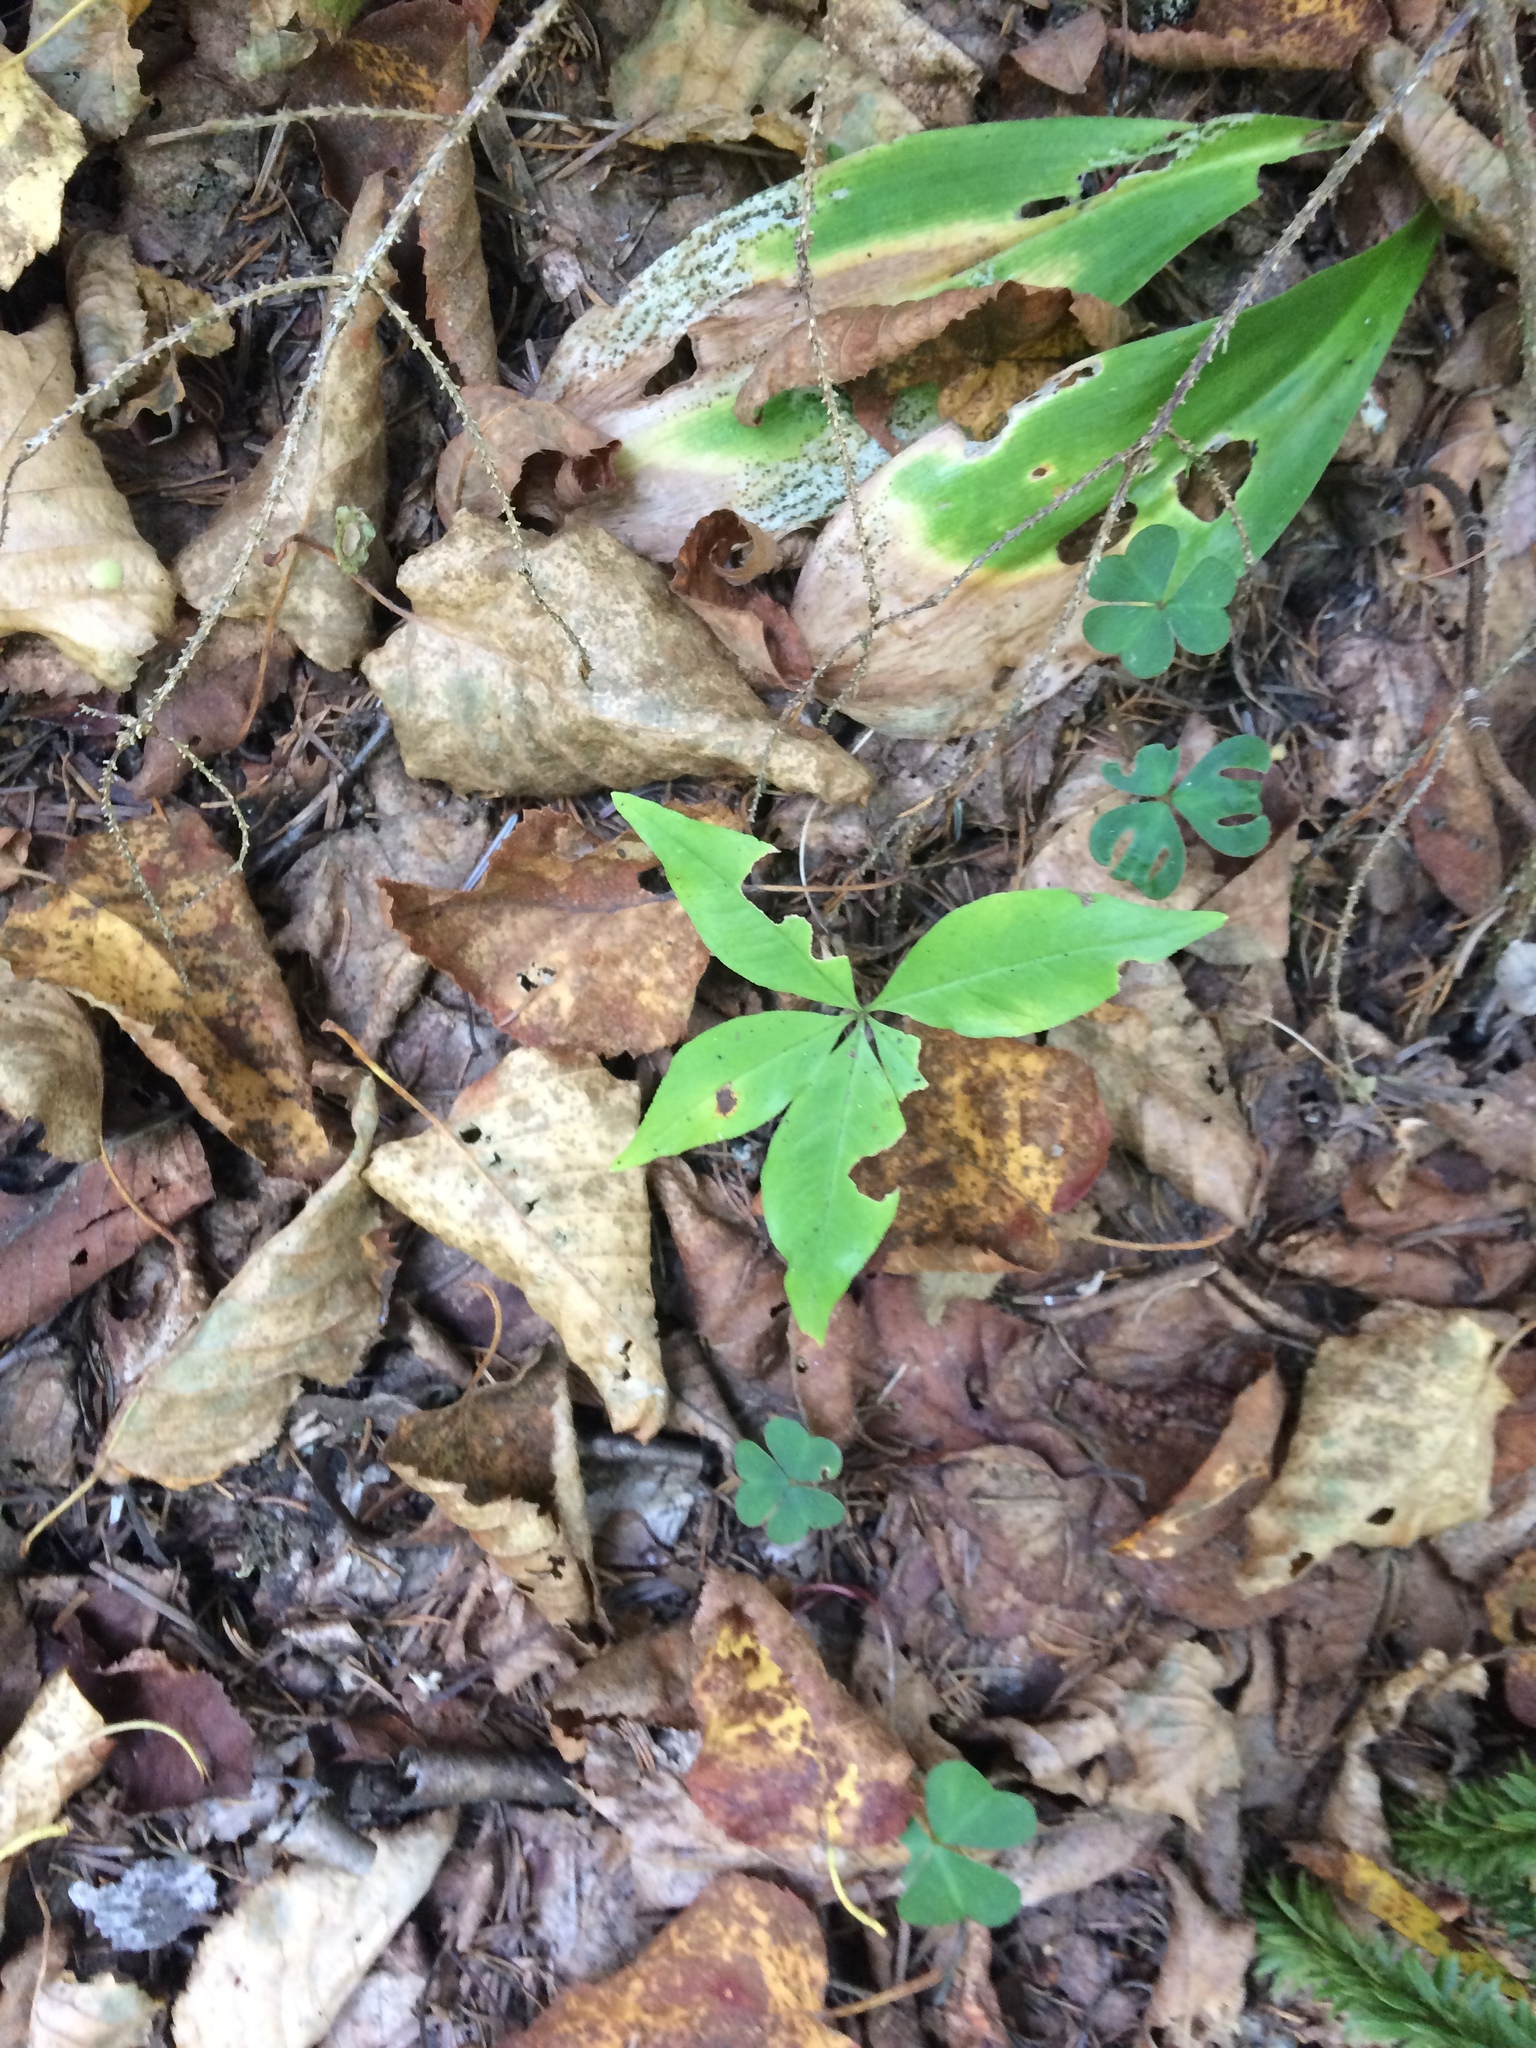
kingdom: Plantae
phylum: Tracheophyta
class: Magnoliopsida
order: Oxalidales
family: Oxalidaceae
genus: Oxalis
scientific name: Oxalis montana
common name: American wood-sorrel
